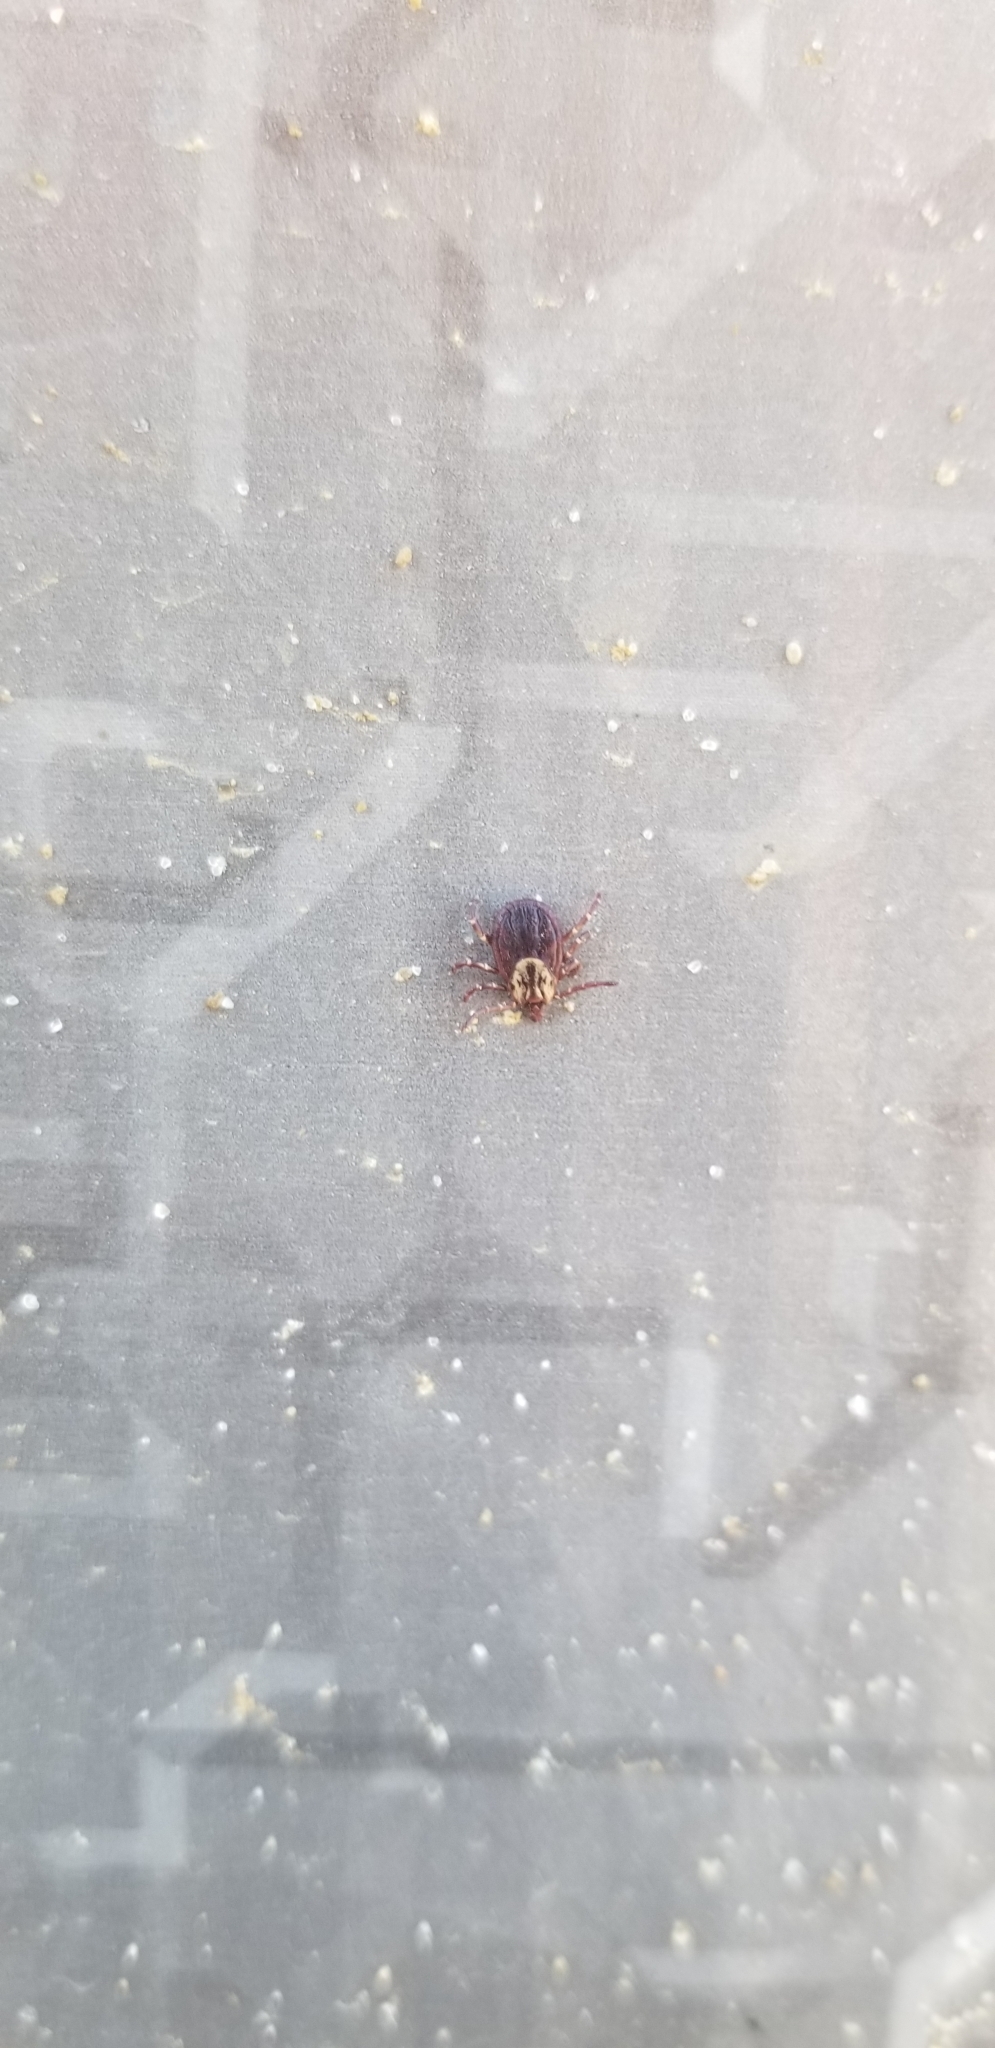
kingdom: Animalia
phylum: Arthropoda
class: Arachnida
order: Ixodida
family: Ixodidae
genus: Dermacentor
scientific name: Dermacentor variabilis
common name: American dog tick
